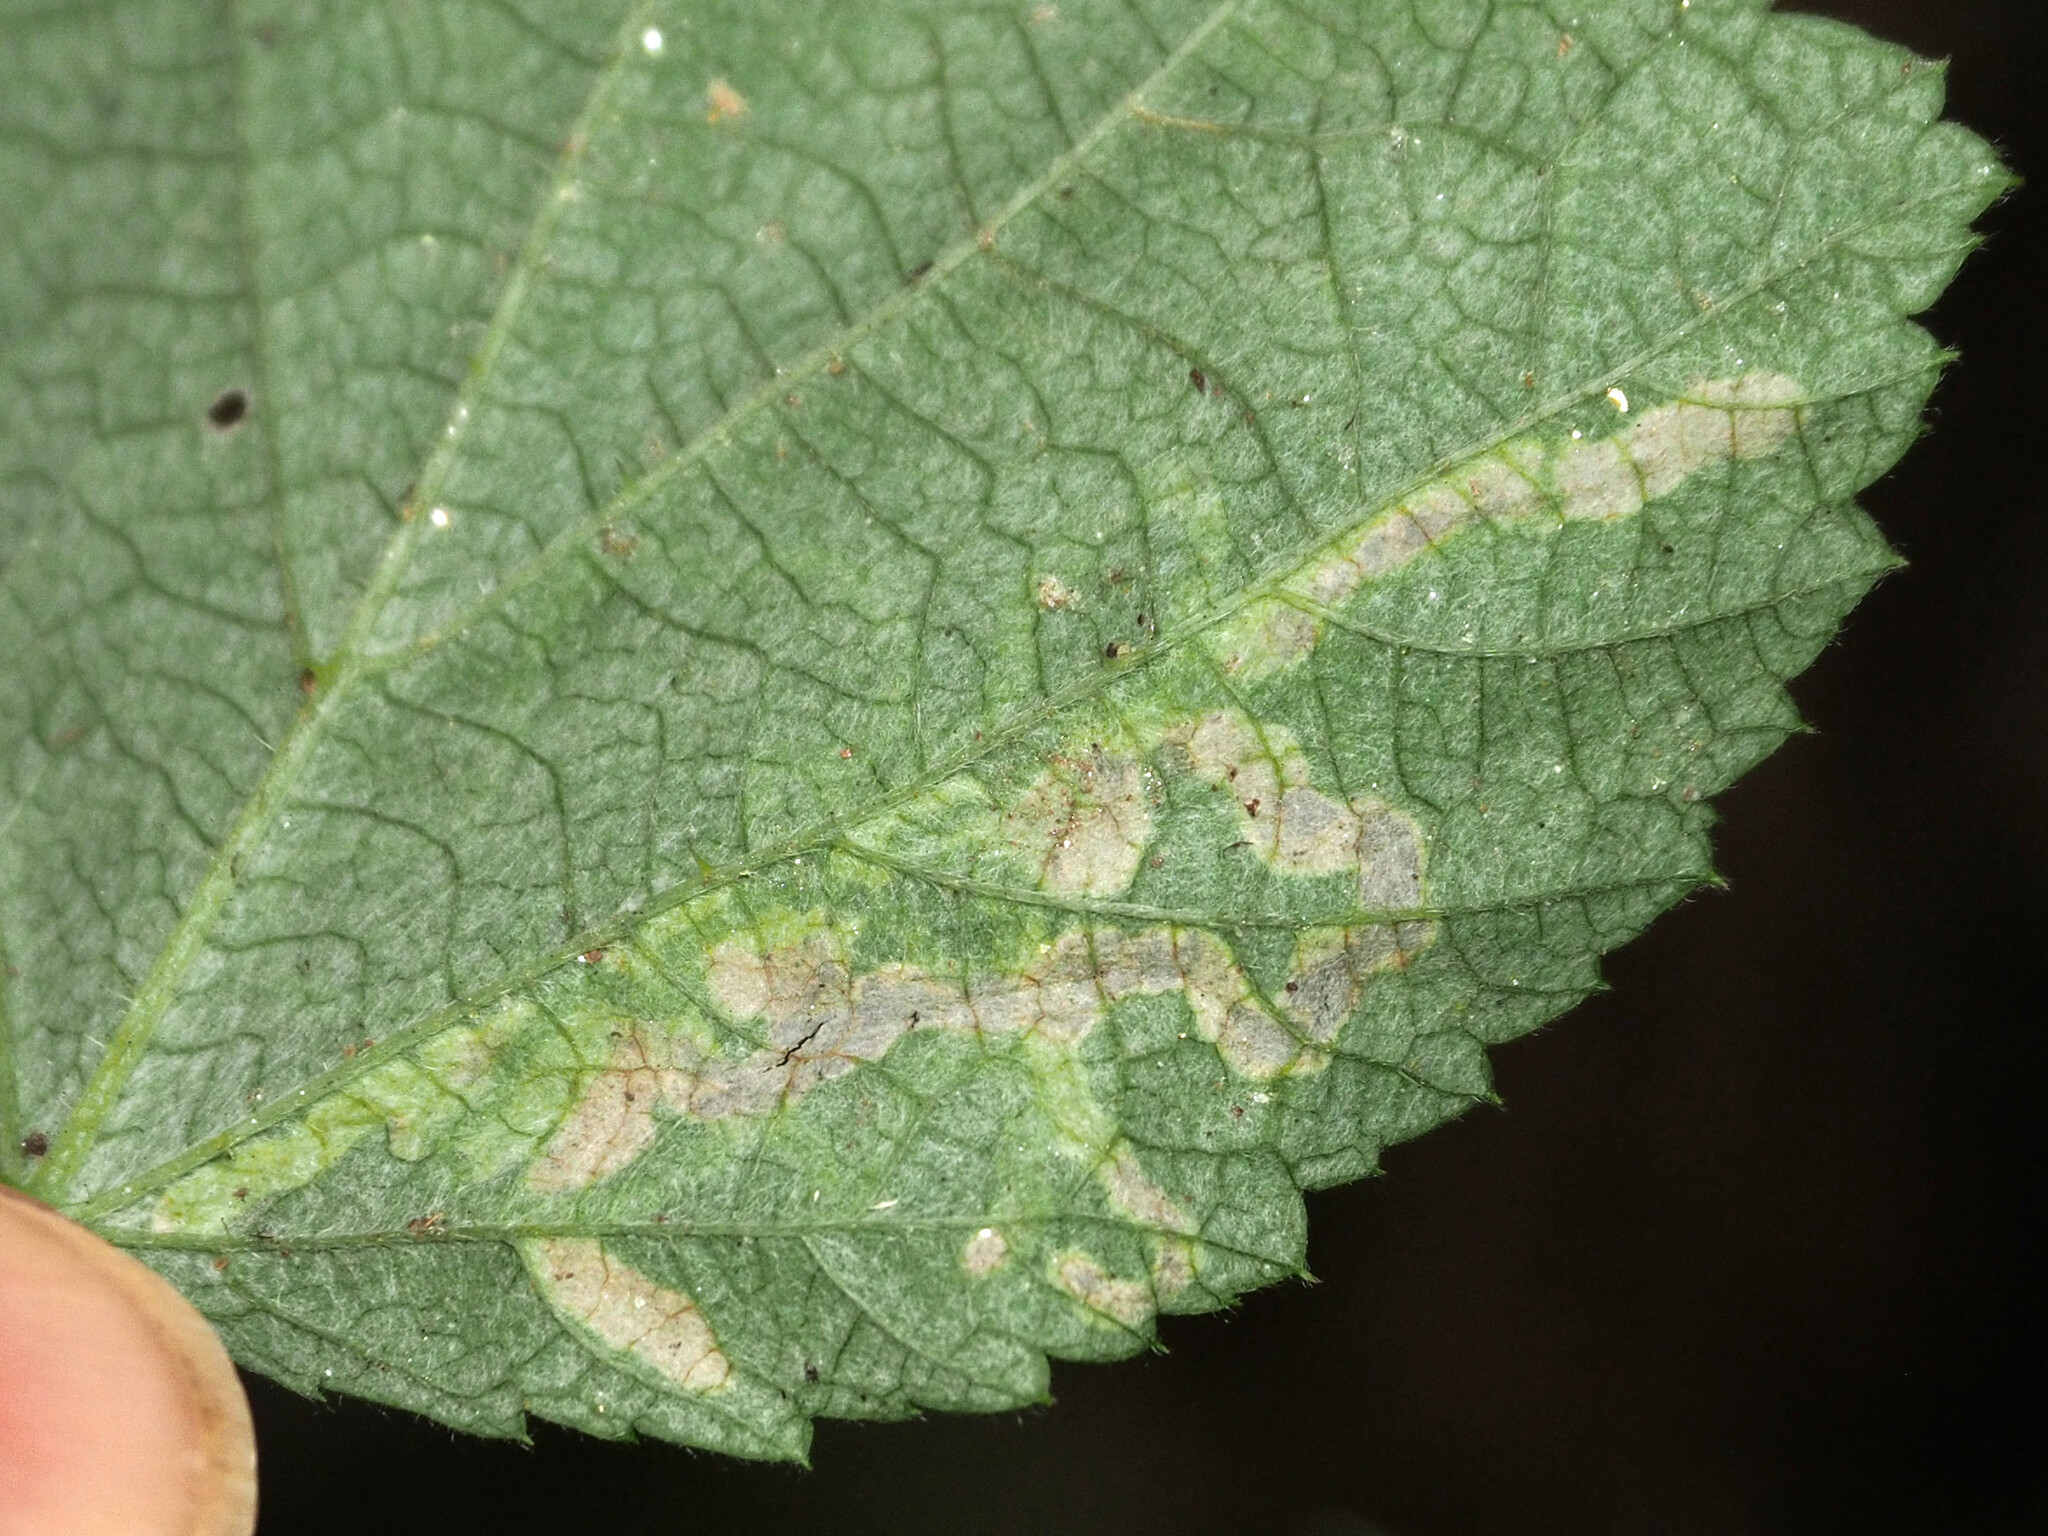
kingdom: Animalia
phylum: Arthropoda
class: Insecta
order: Diptera
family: Agromyzidae
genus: Agromyza
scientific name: Agromyza vockerothi
